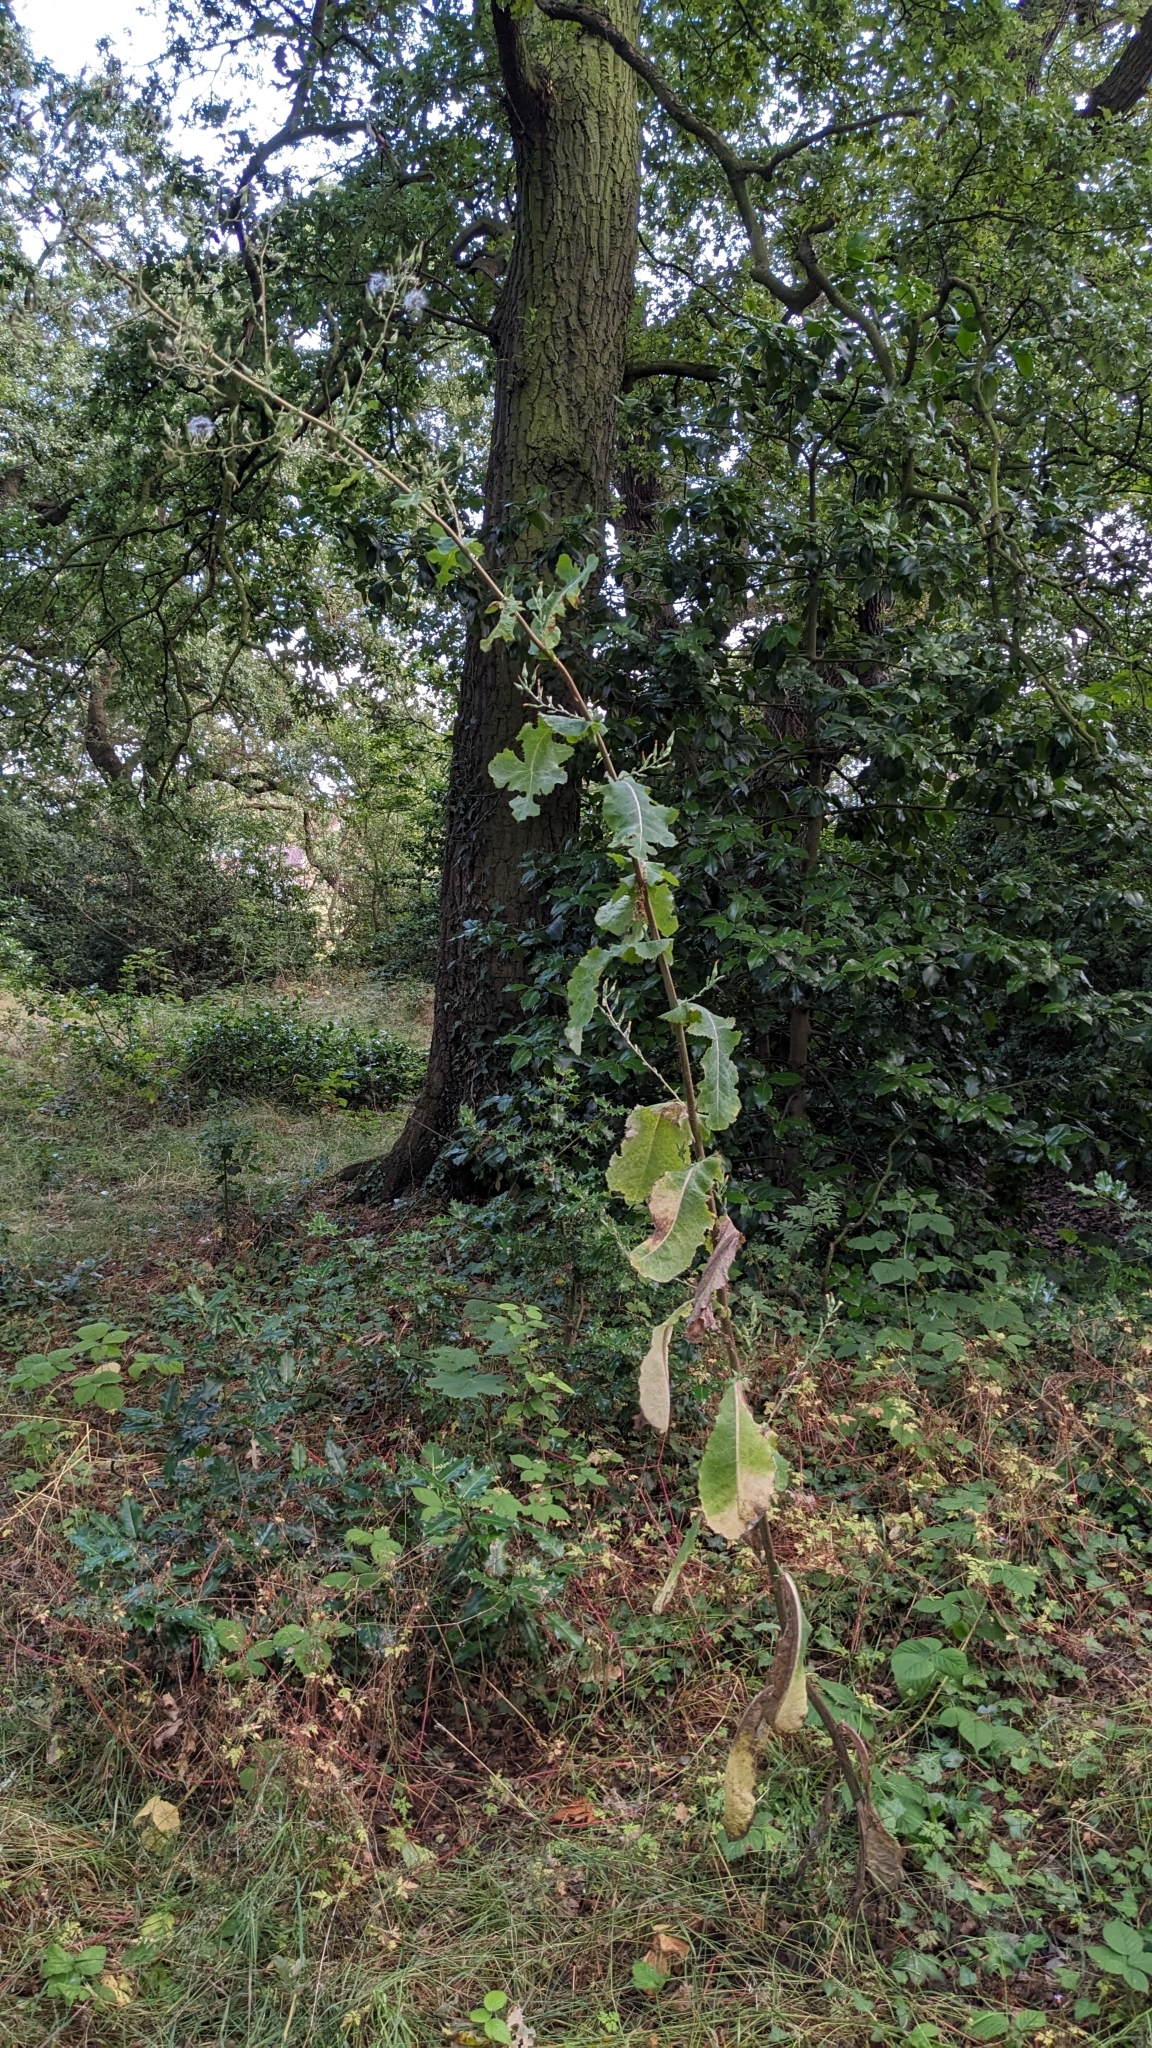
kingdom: Plantae
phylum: Tracheophyta
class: Magnoliopsida
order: Asterales
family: Asteraceae
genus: Lactuca
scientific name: Lactuca virosa
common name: Great lettuce
